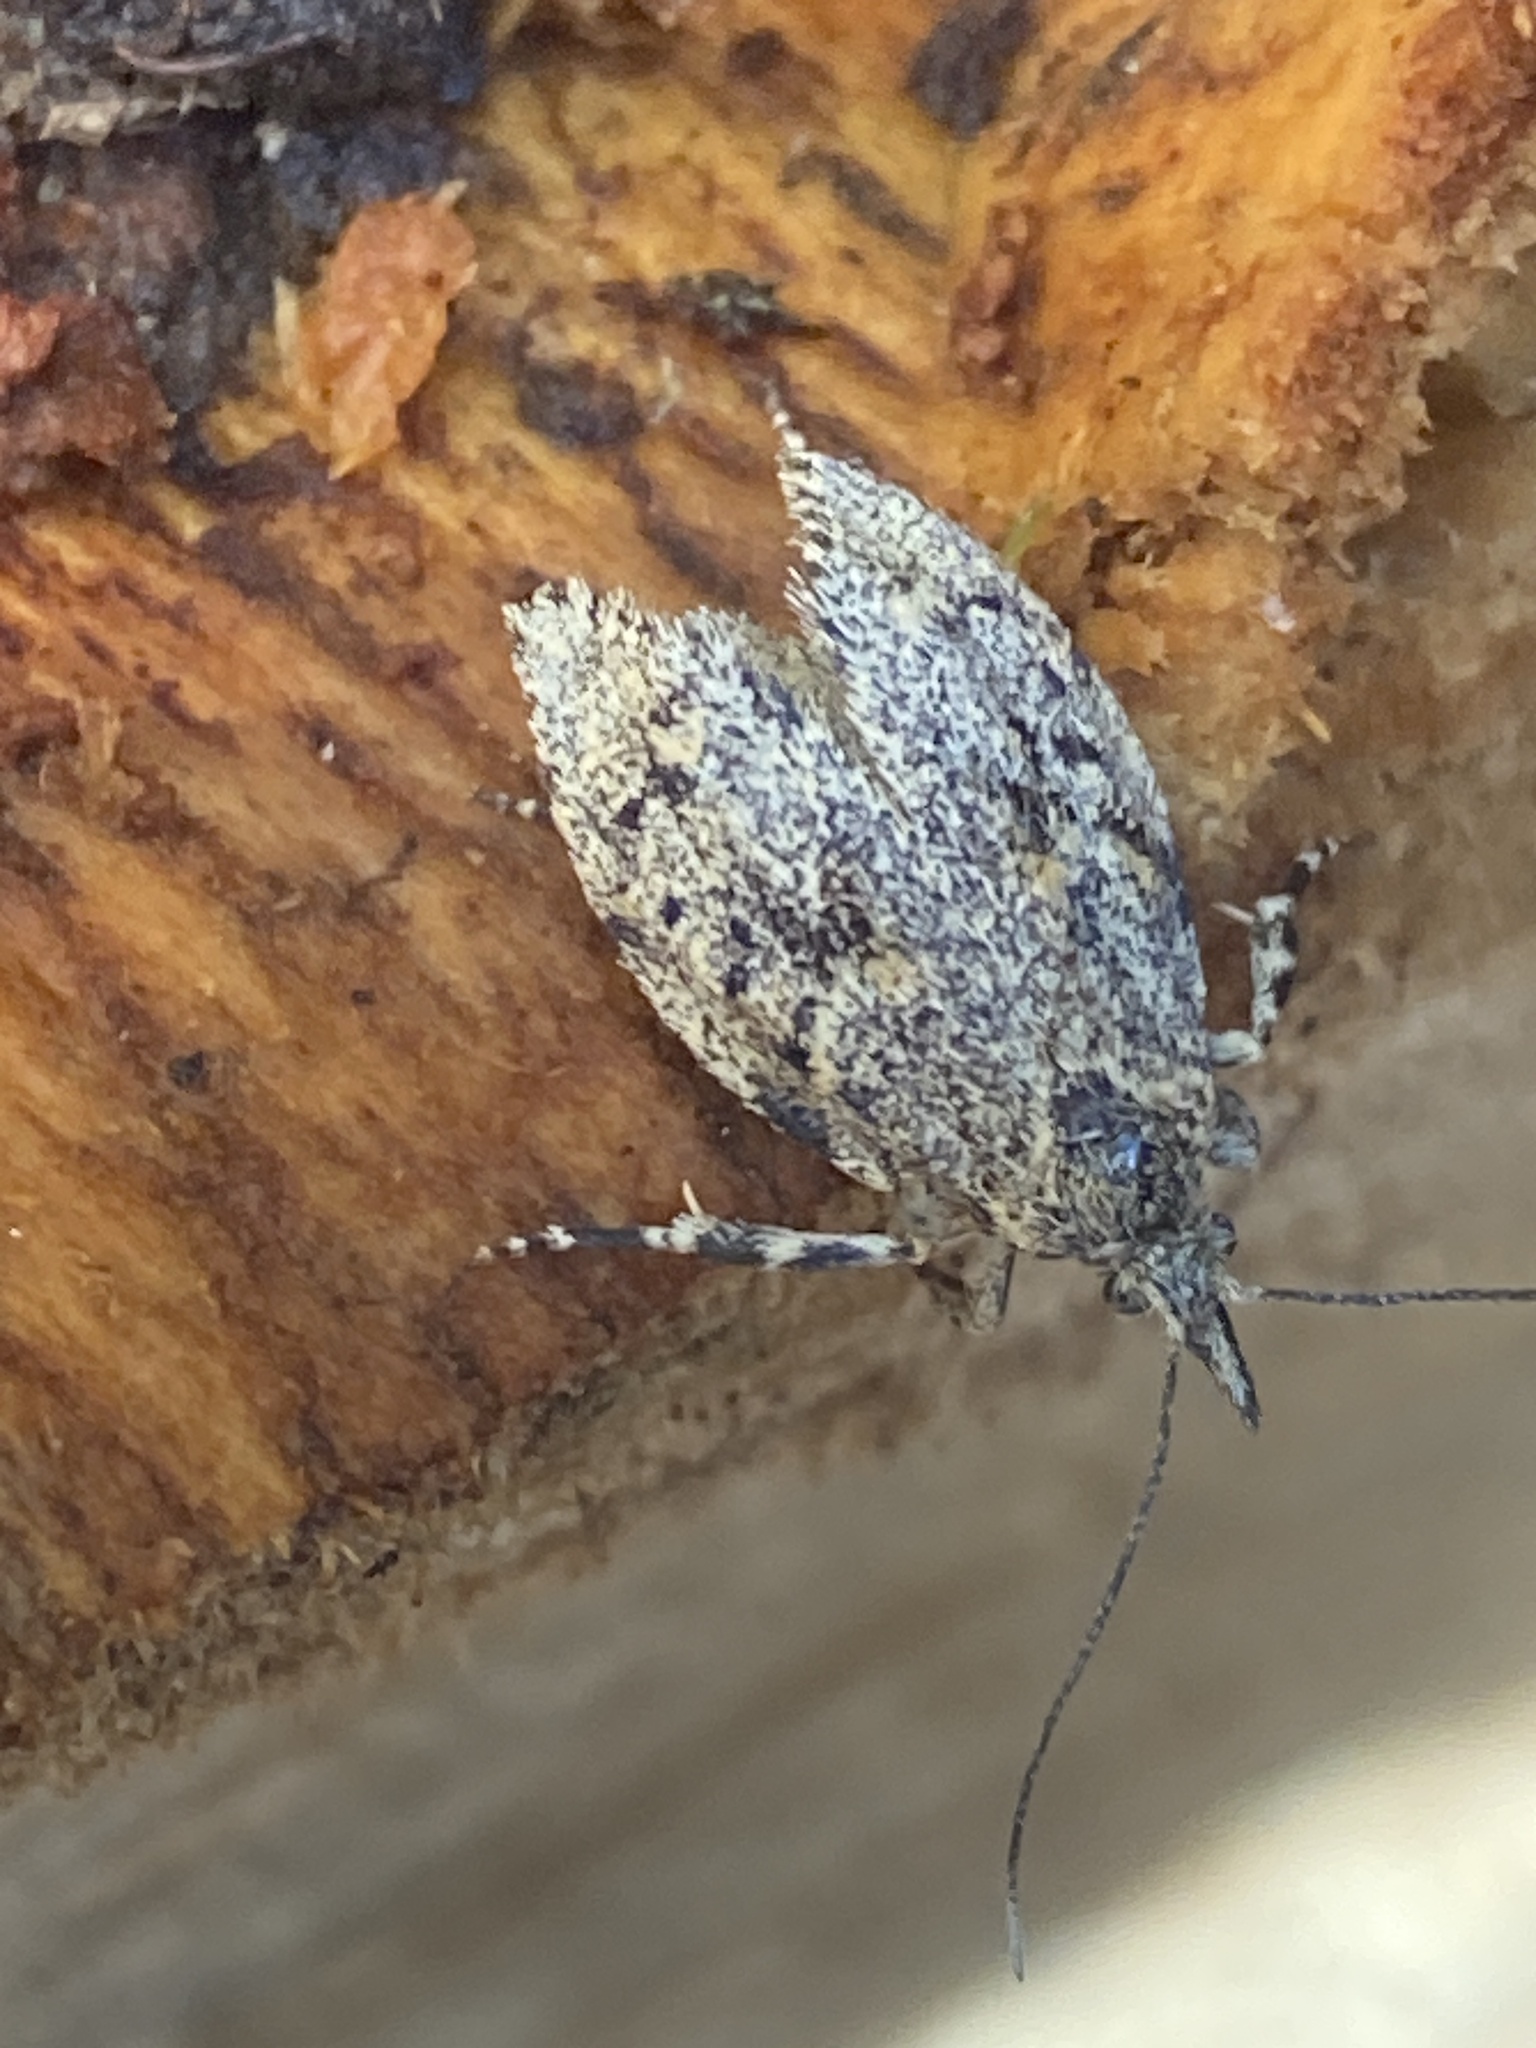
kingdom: Animalia
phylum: Arthropoda
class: Insecta
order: Lepidoptera
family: Lypusidae
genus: Diurnea
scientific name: Diurnea fagella
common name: March tubic
